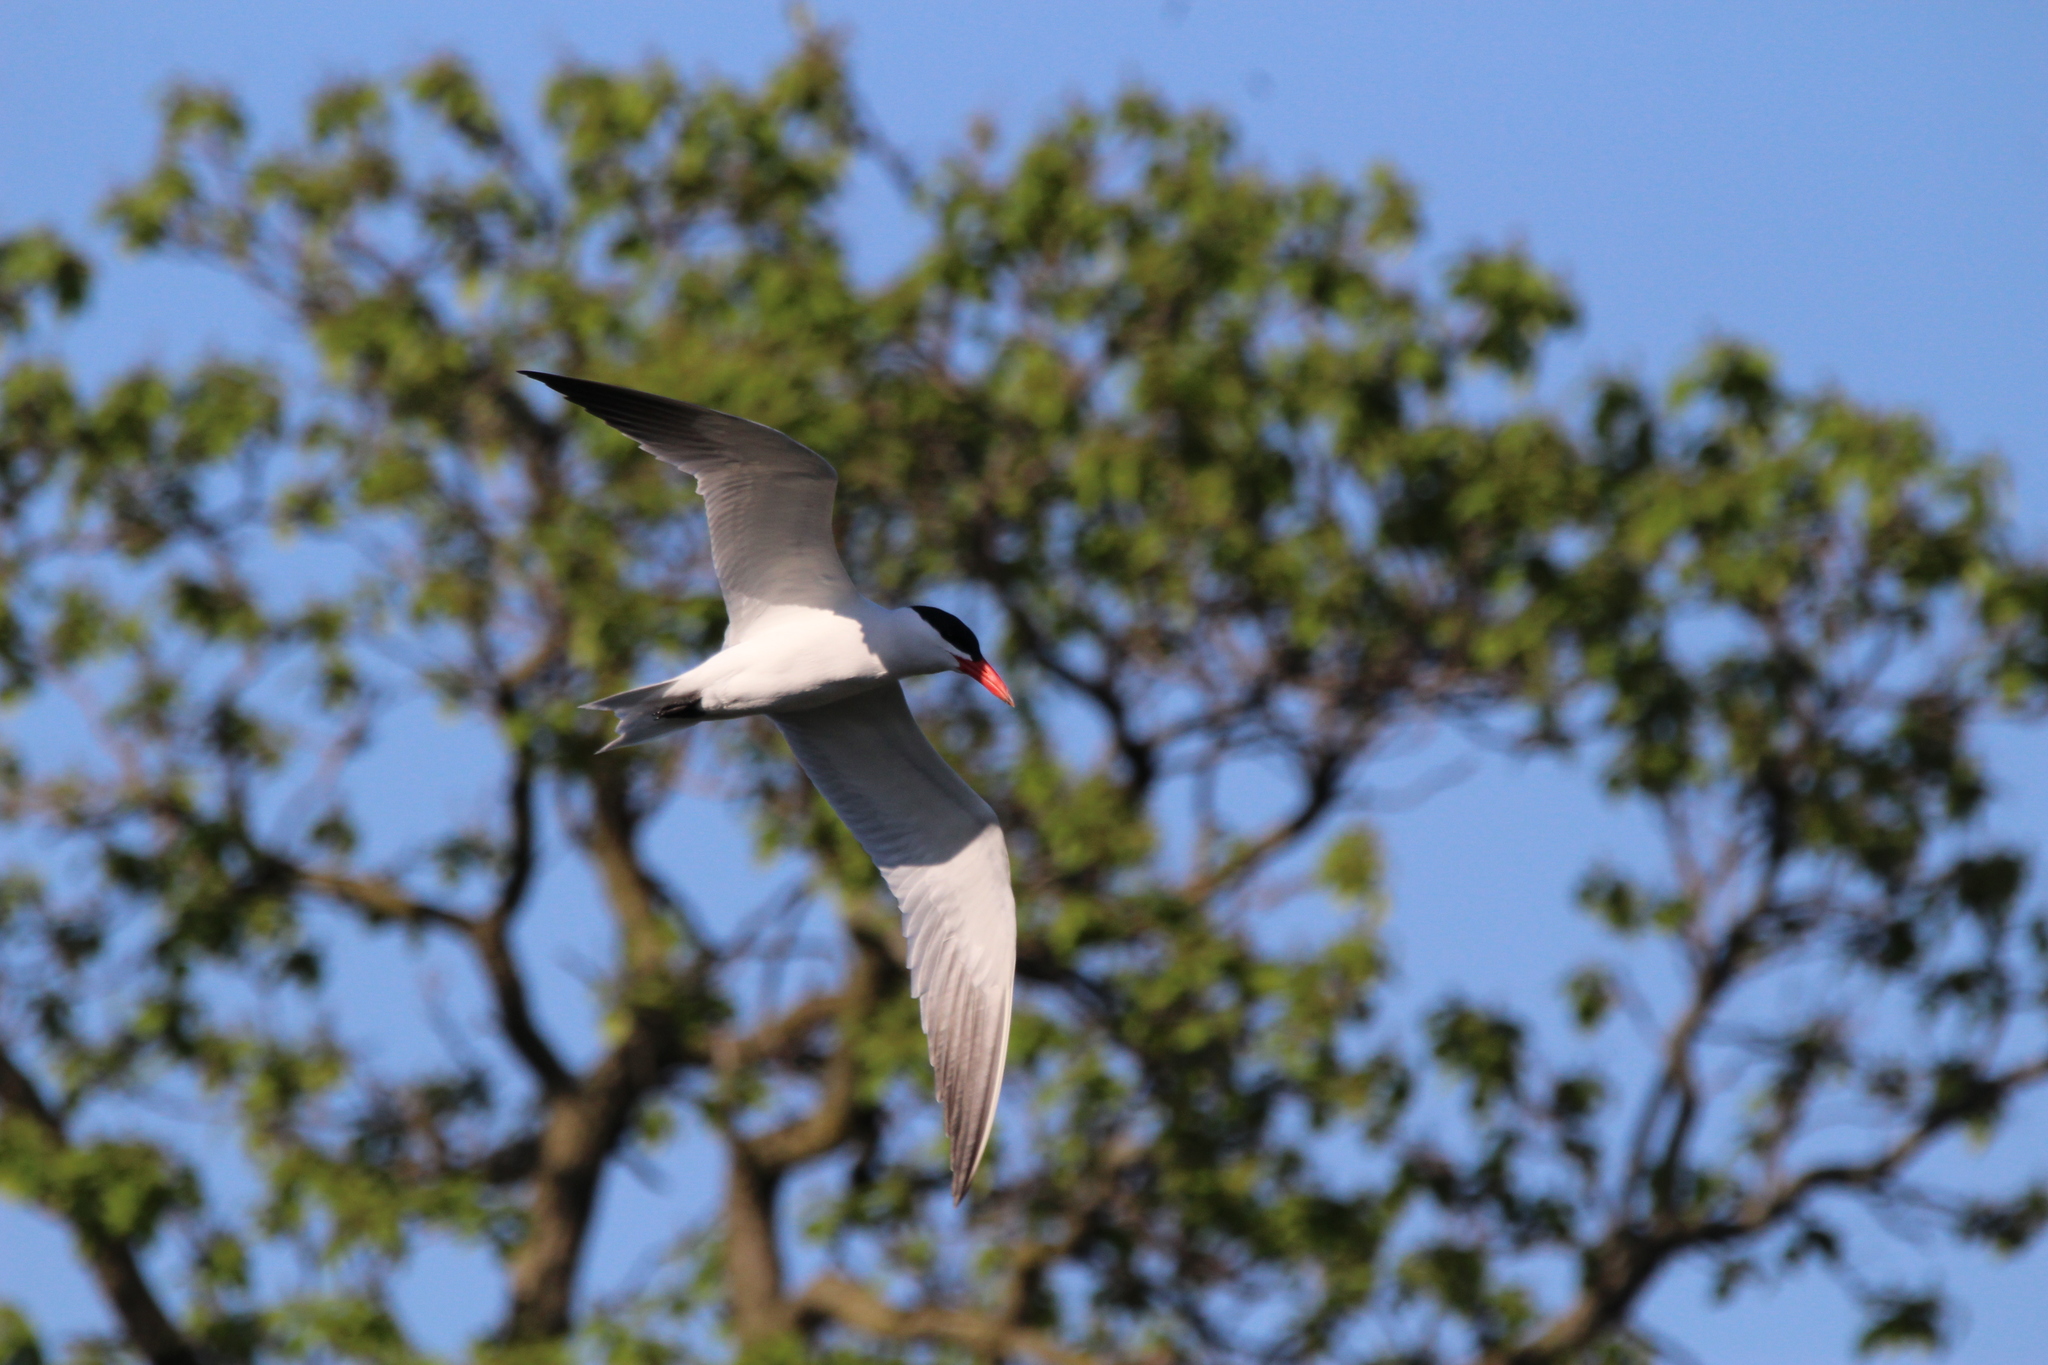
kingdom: Animalia
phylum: Chordata
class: Aves
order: Charadriiformes
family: Laridae
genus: Hydroprogne
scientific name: Hydroprogne caspia
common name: Caspian tern
